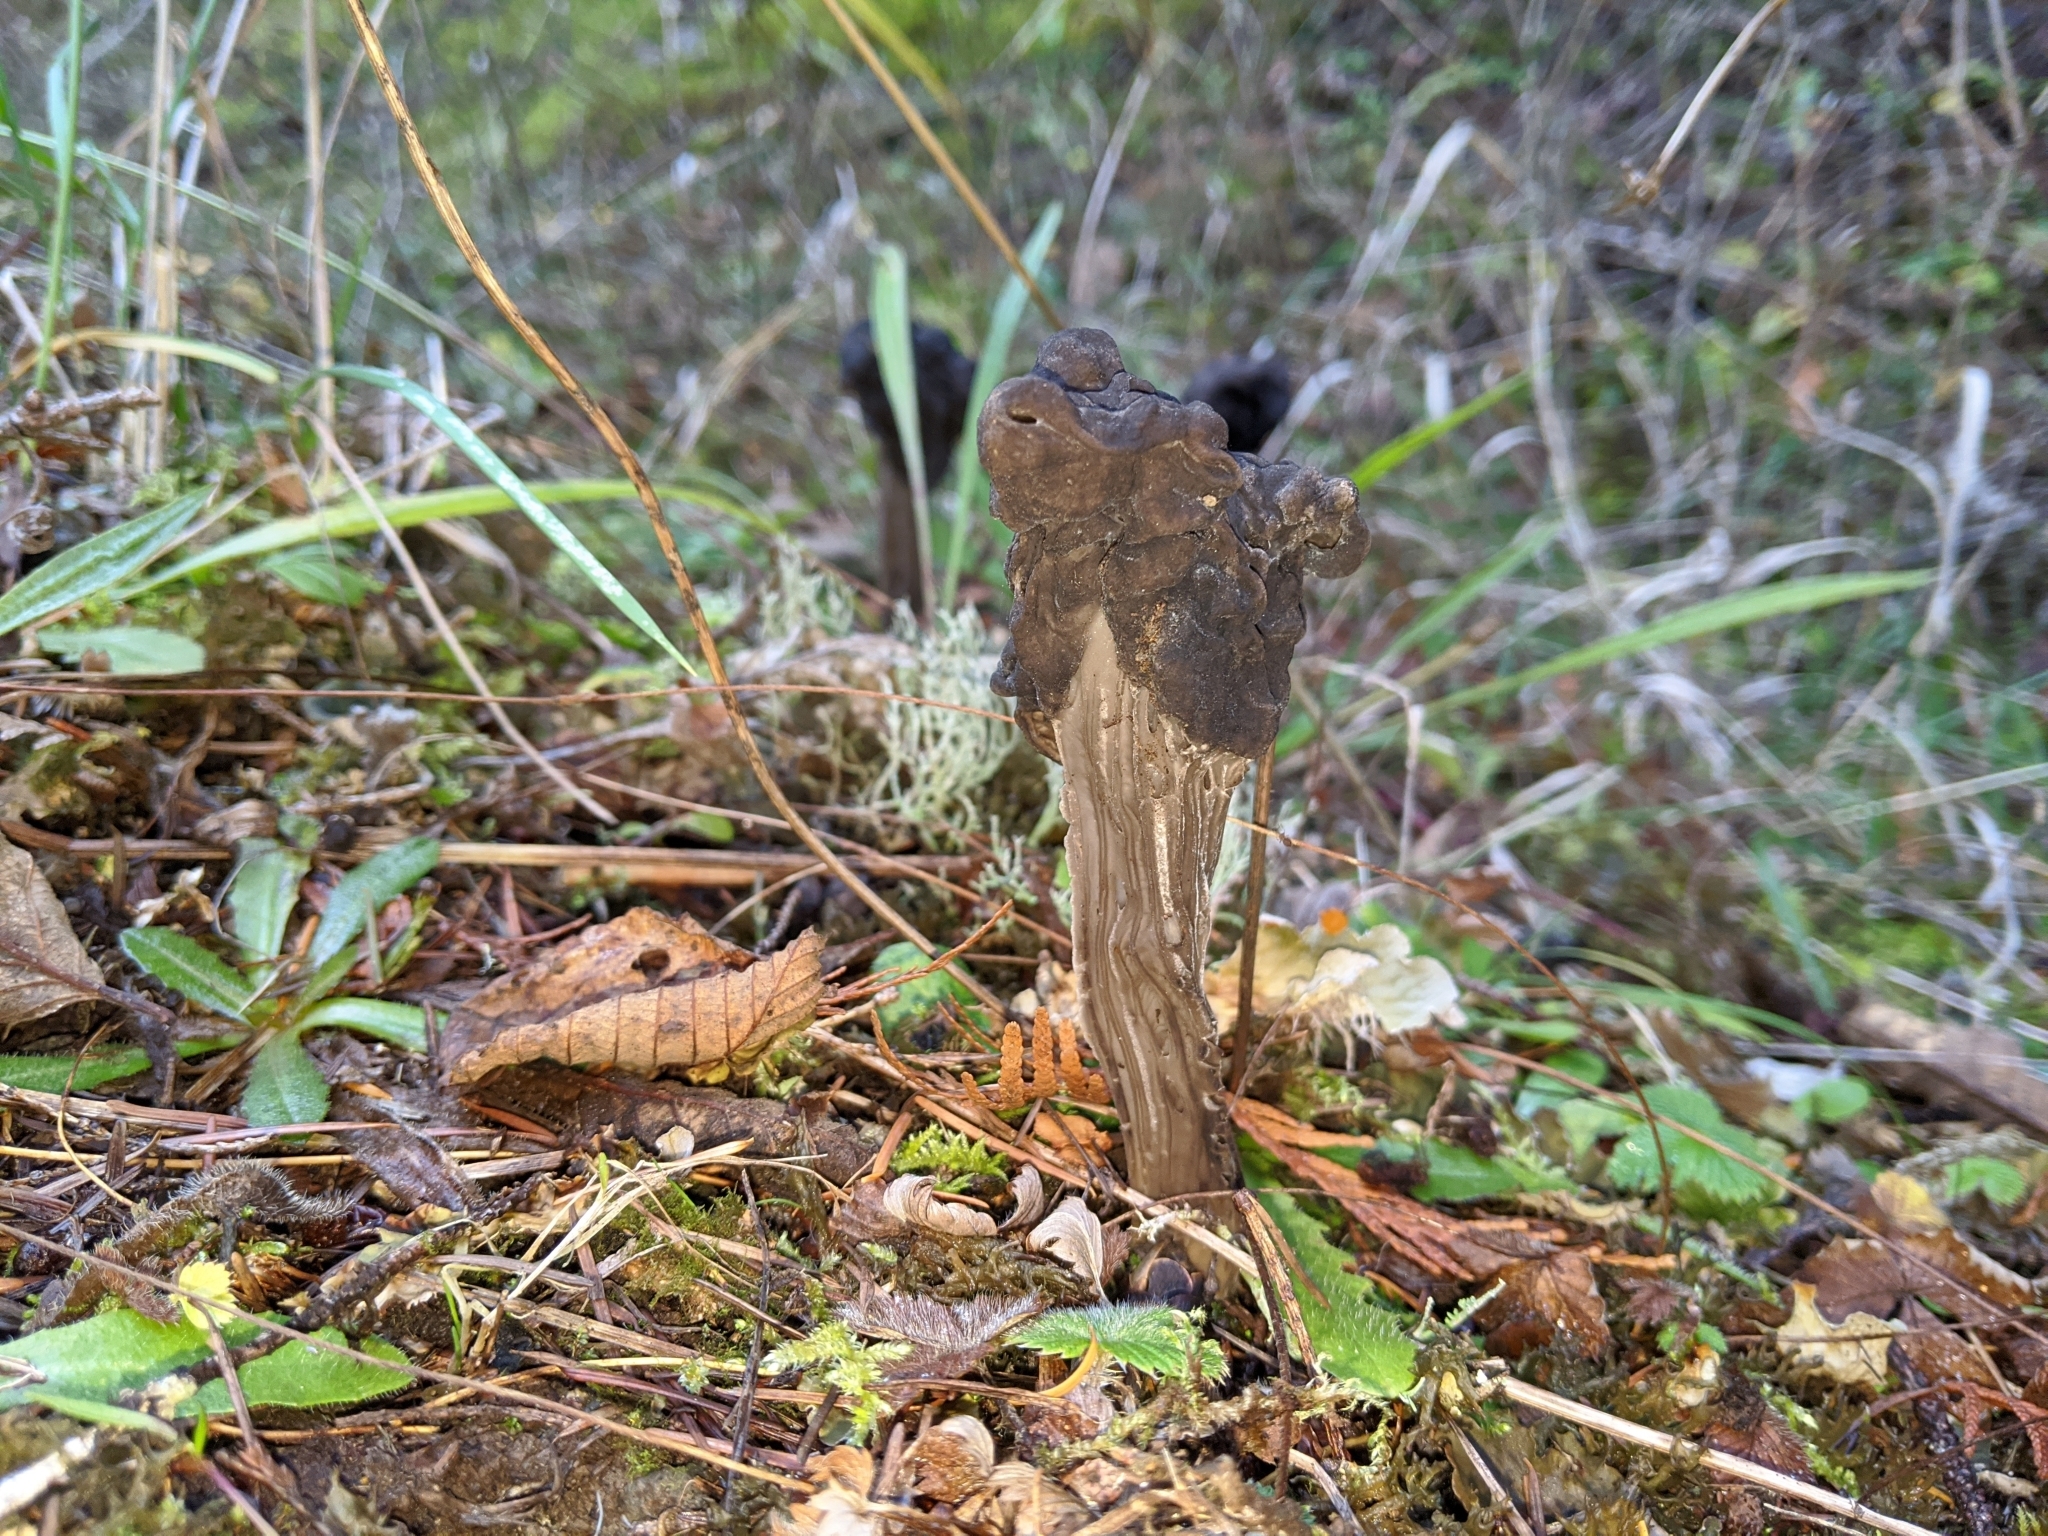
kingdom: Fungi
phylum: Ascomycota
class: Pezizomycetes
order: Pezizales
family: Helvellaceae
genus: Helvella
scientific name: Helvella vespertina
